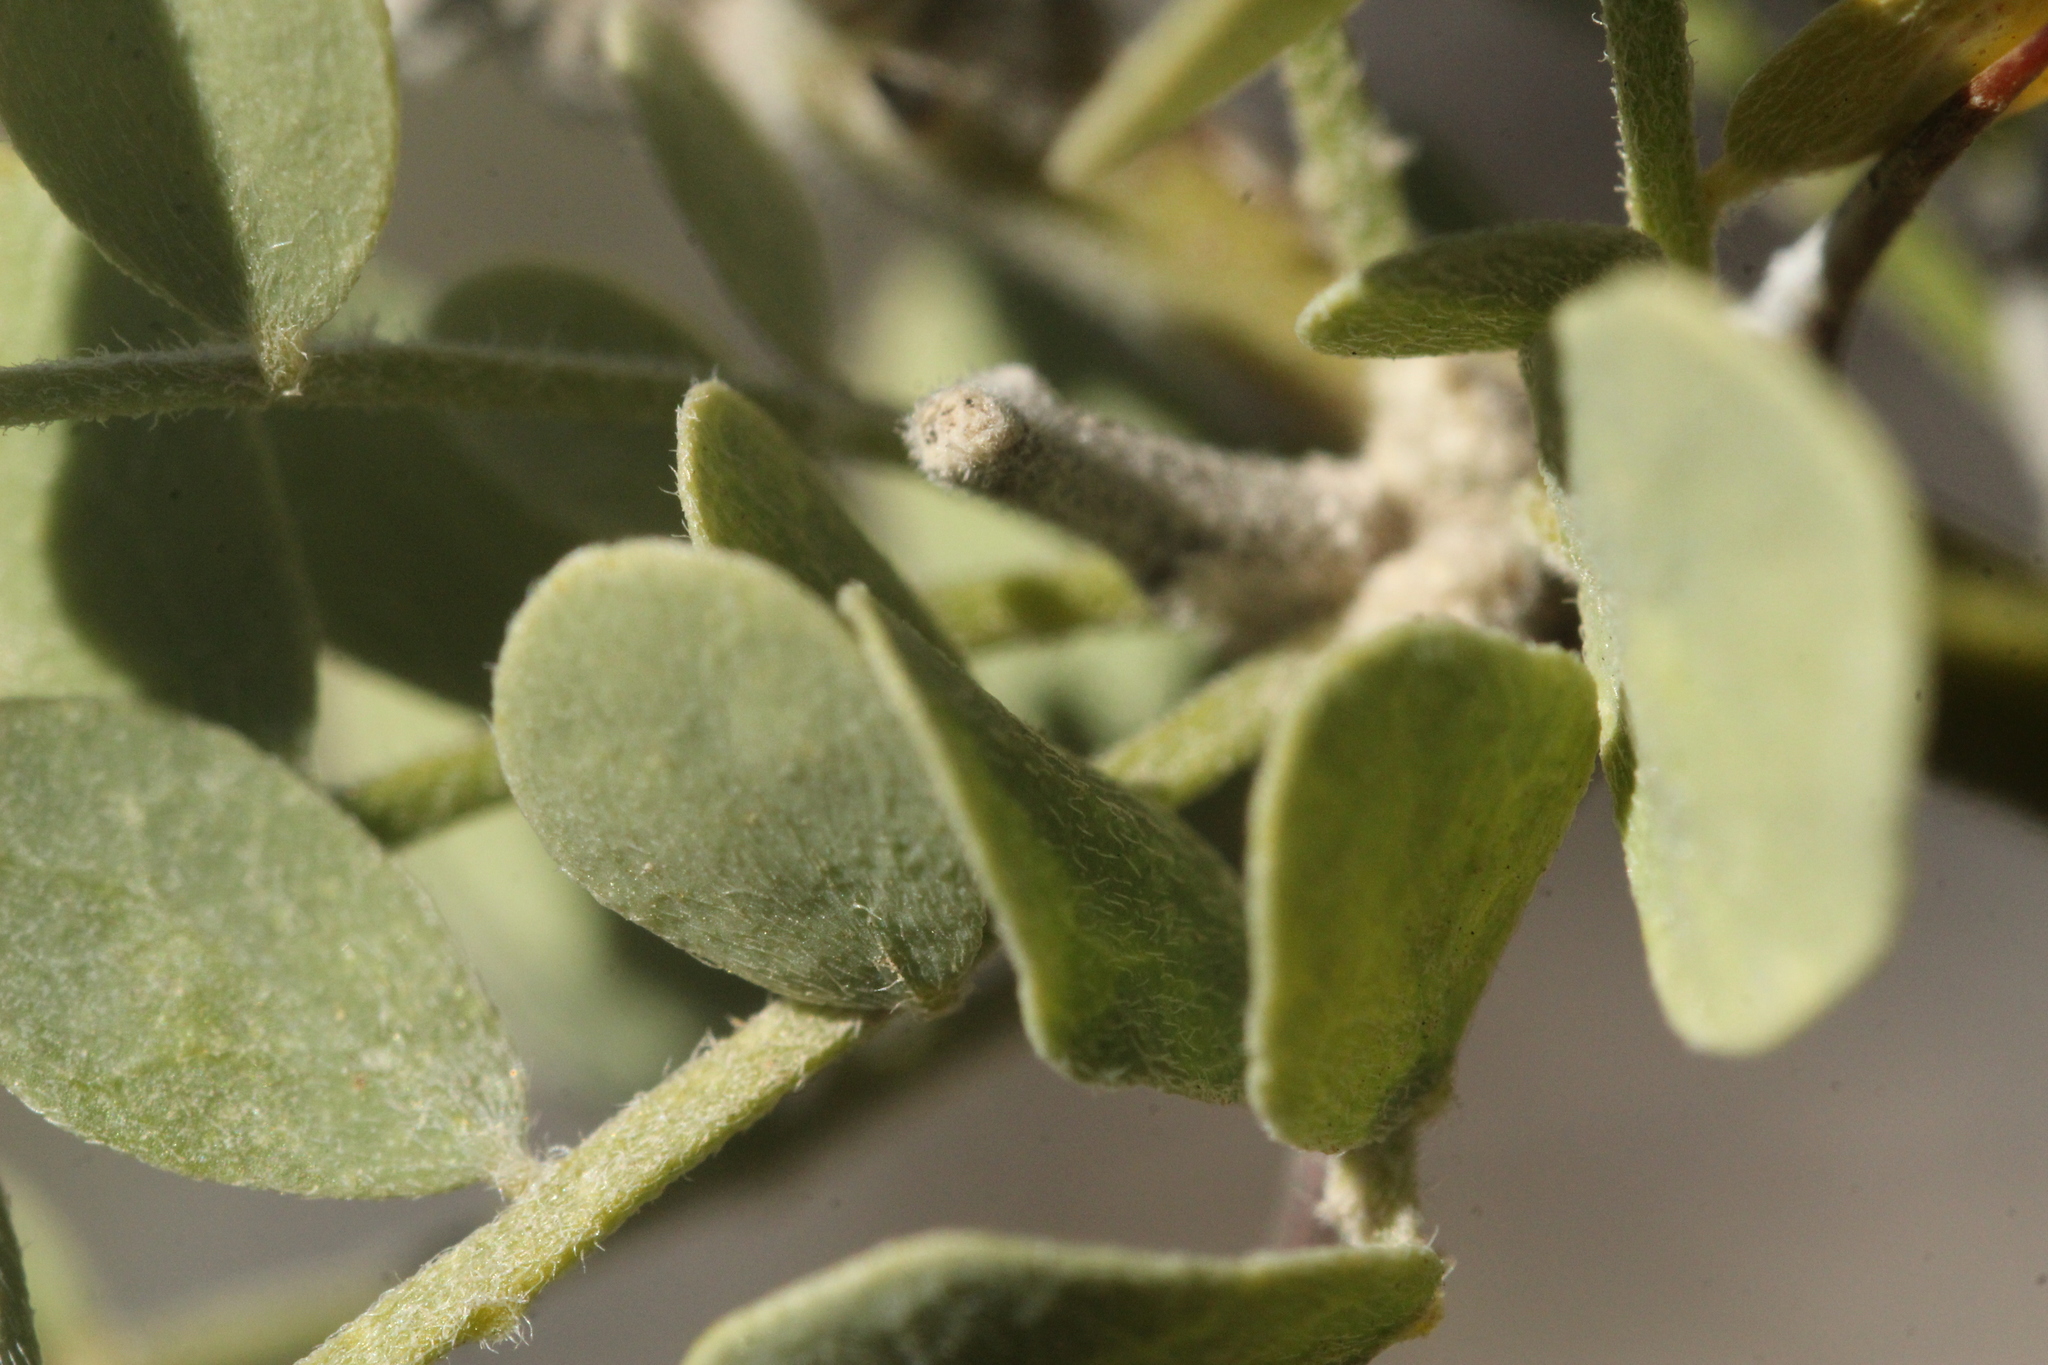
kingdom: Plantae
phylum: Tracheophyta
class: Magnoliopsida
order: Fabales
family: Fabaceae
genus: Olneya
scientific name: Olneya tesota
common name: Desert ironwood
